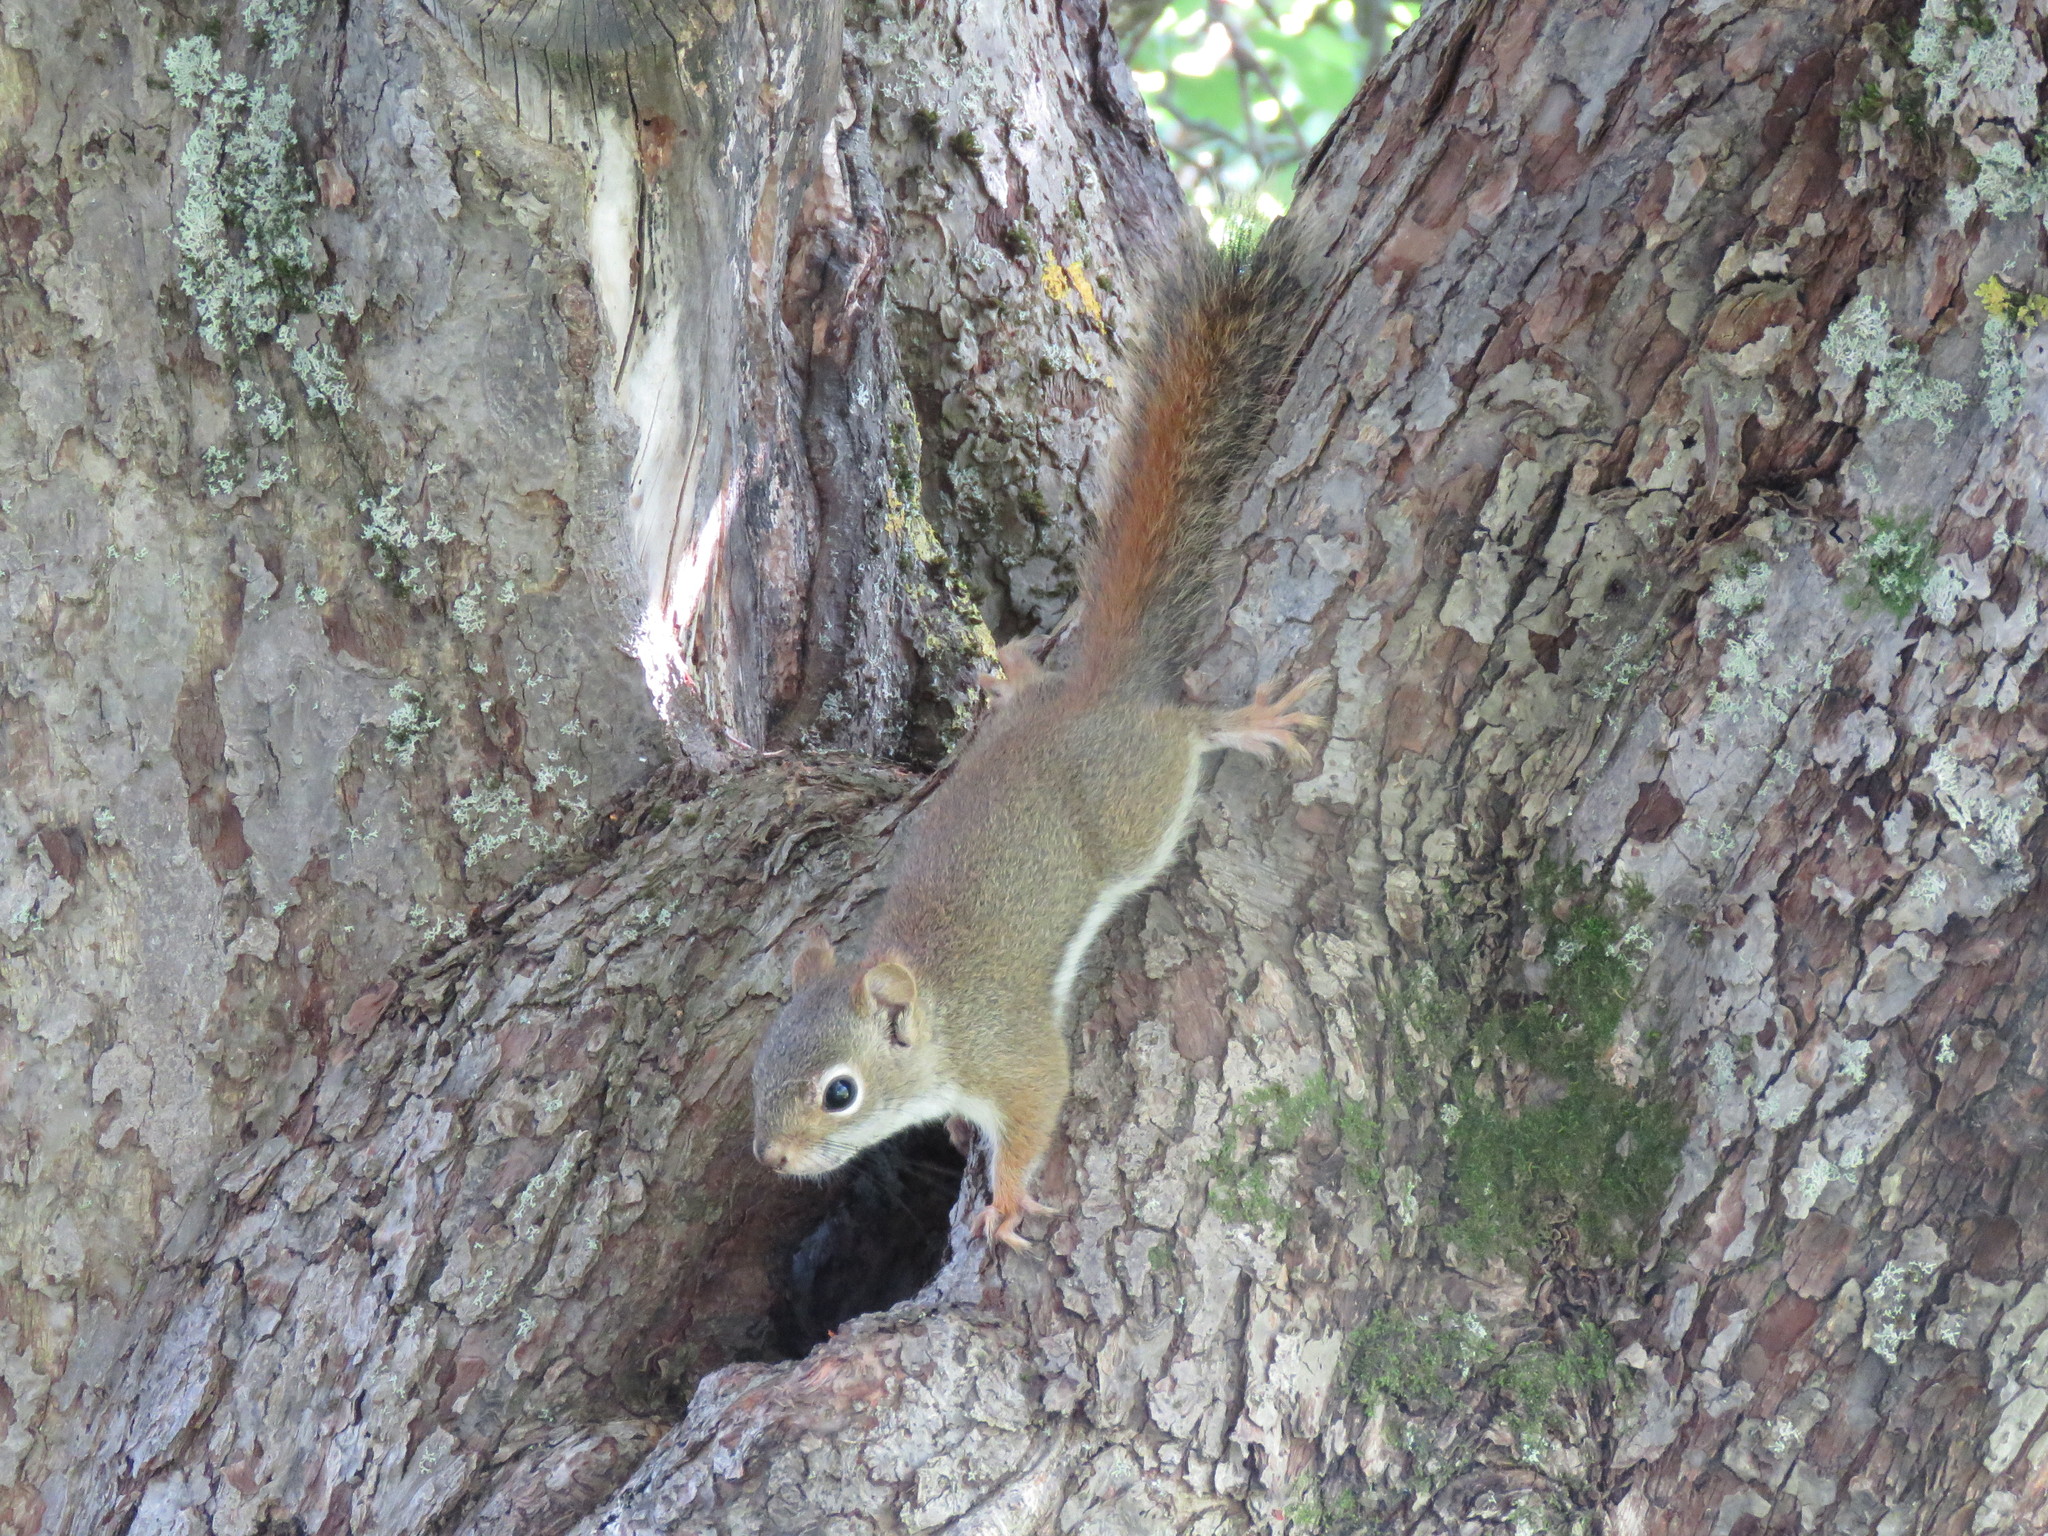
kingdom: Animalia
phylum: Chordata
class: Mammalia
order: Rodentia
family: Sciuridae
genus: Tamiasciurus
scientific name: Tamiasciurus hudsonicus
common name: Red squirrel
